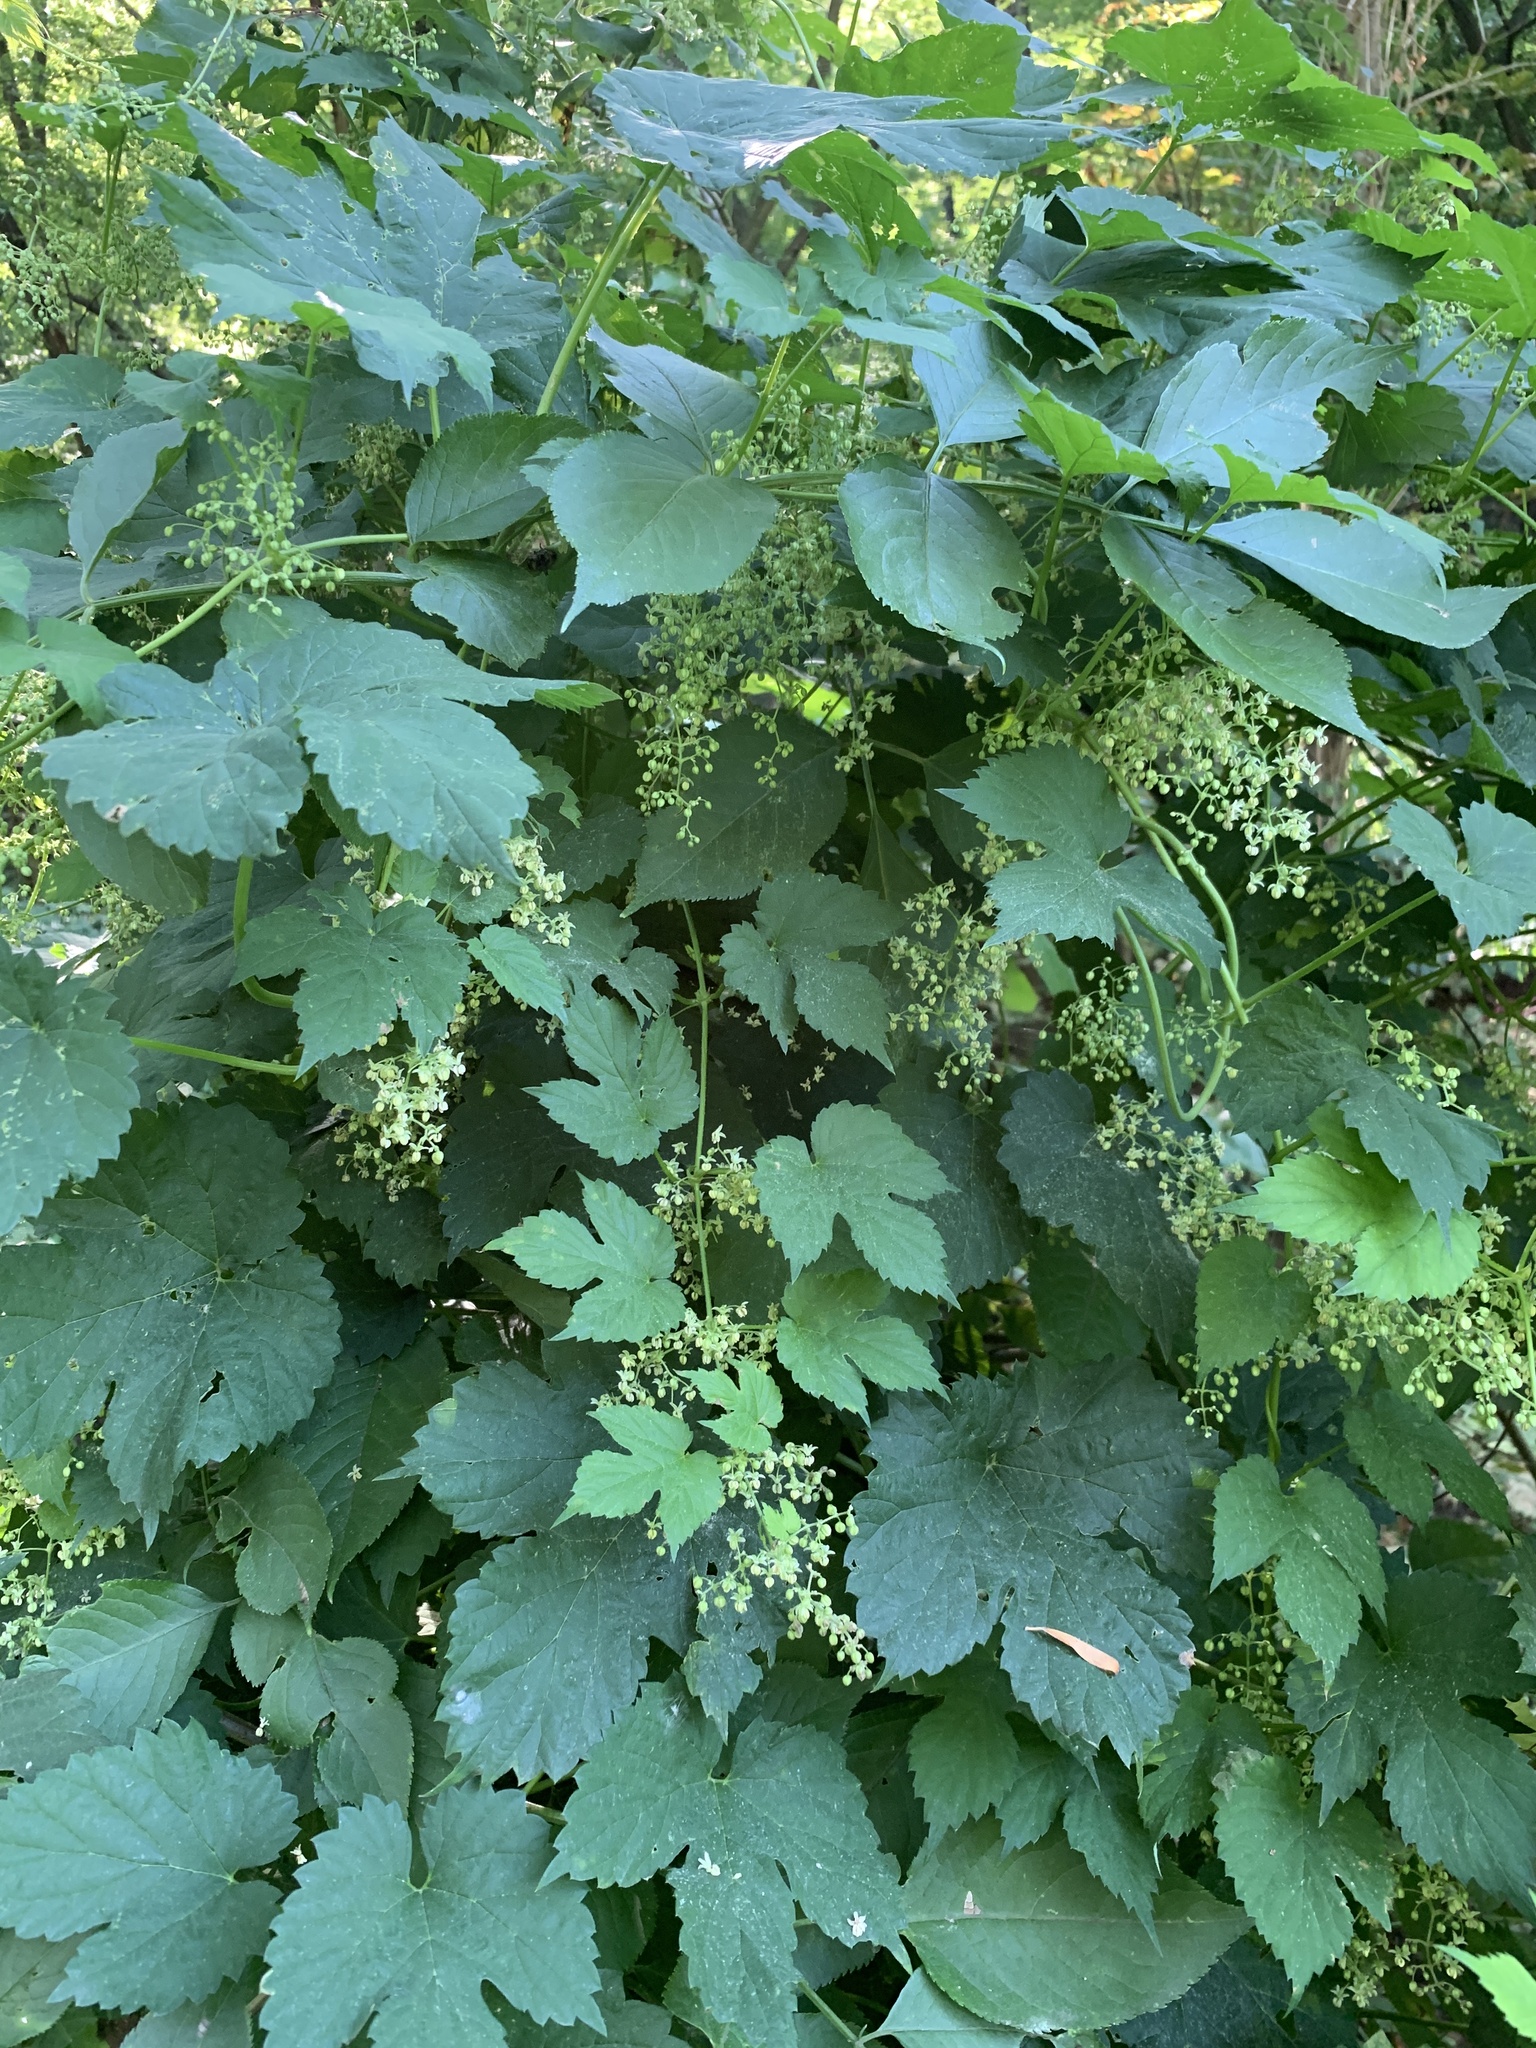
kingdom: Plantae
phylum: Tracheophyta
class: Magnoliopsida
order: Rosales
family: Cannabaceae
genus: Humulus
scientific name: Humulus lupulus
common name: Hop
